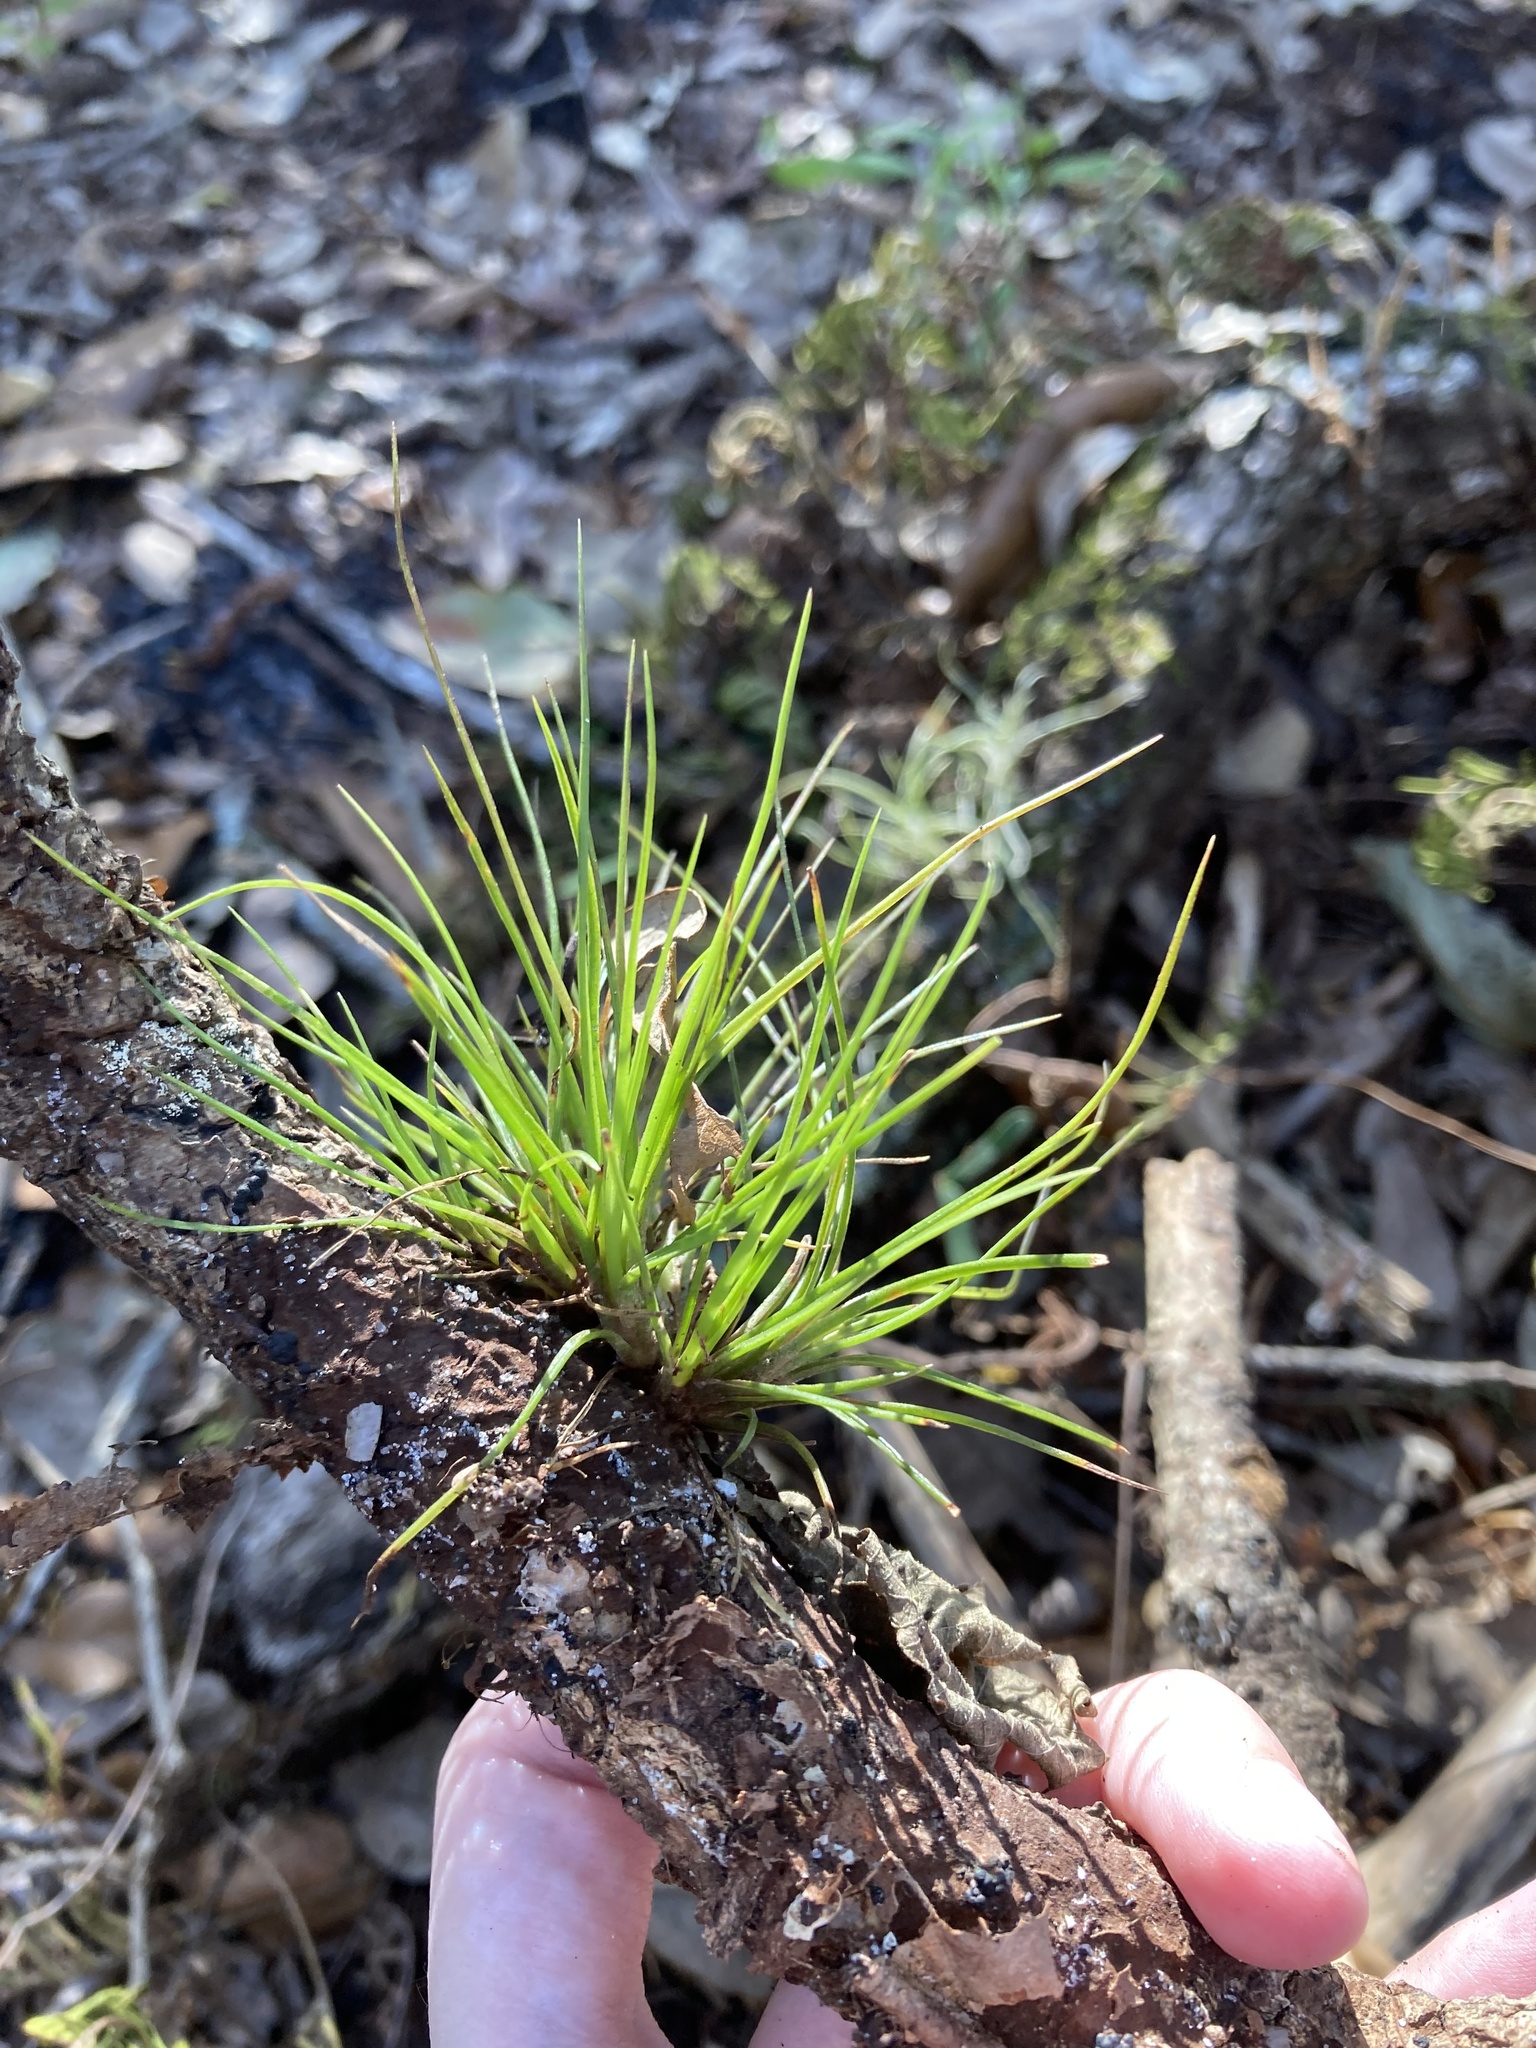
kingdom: Plantae
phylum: Tracheophyta
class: Liliopsida
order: Poales
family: Bromeliaceae
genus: Tillandsia
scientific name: Tillandsia setacea
